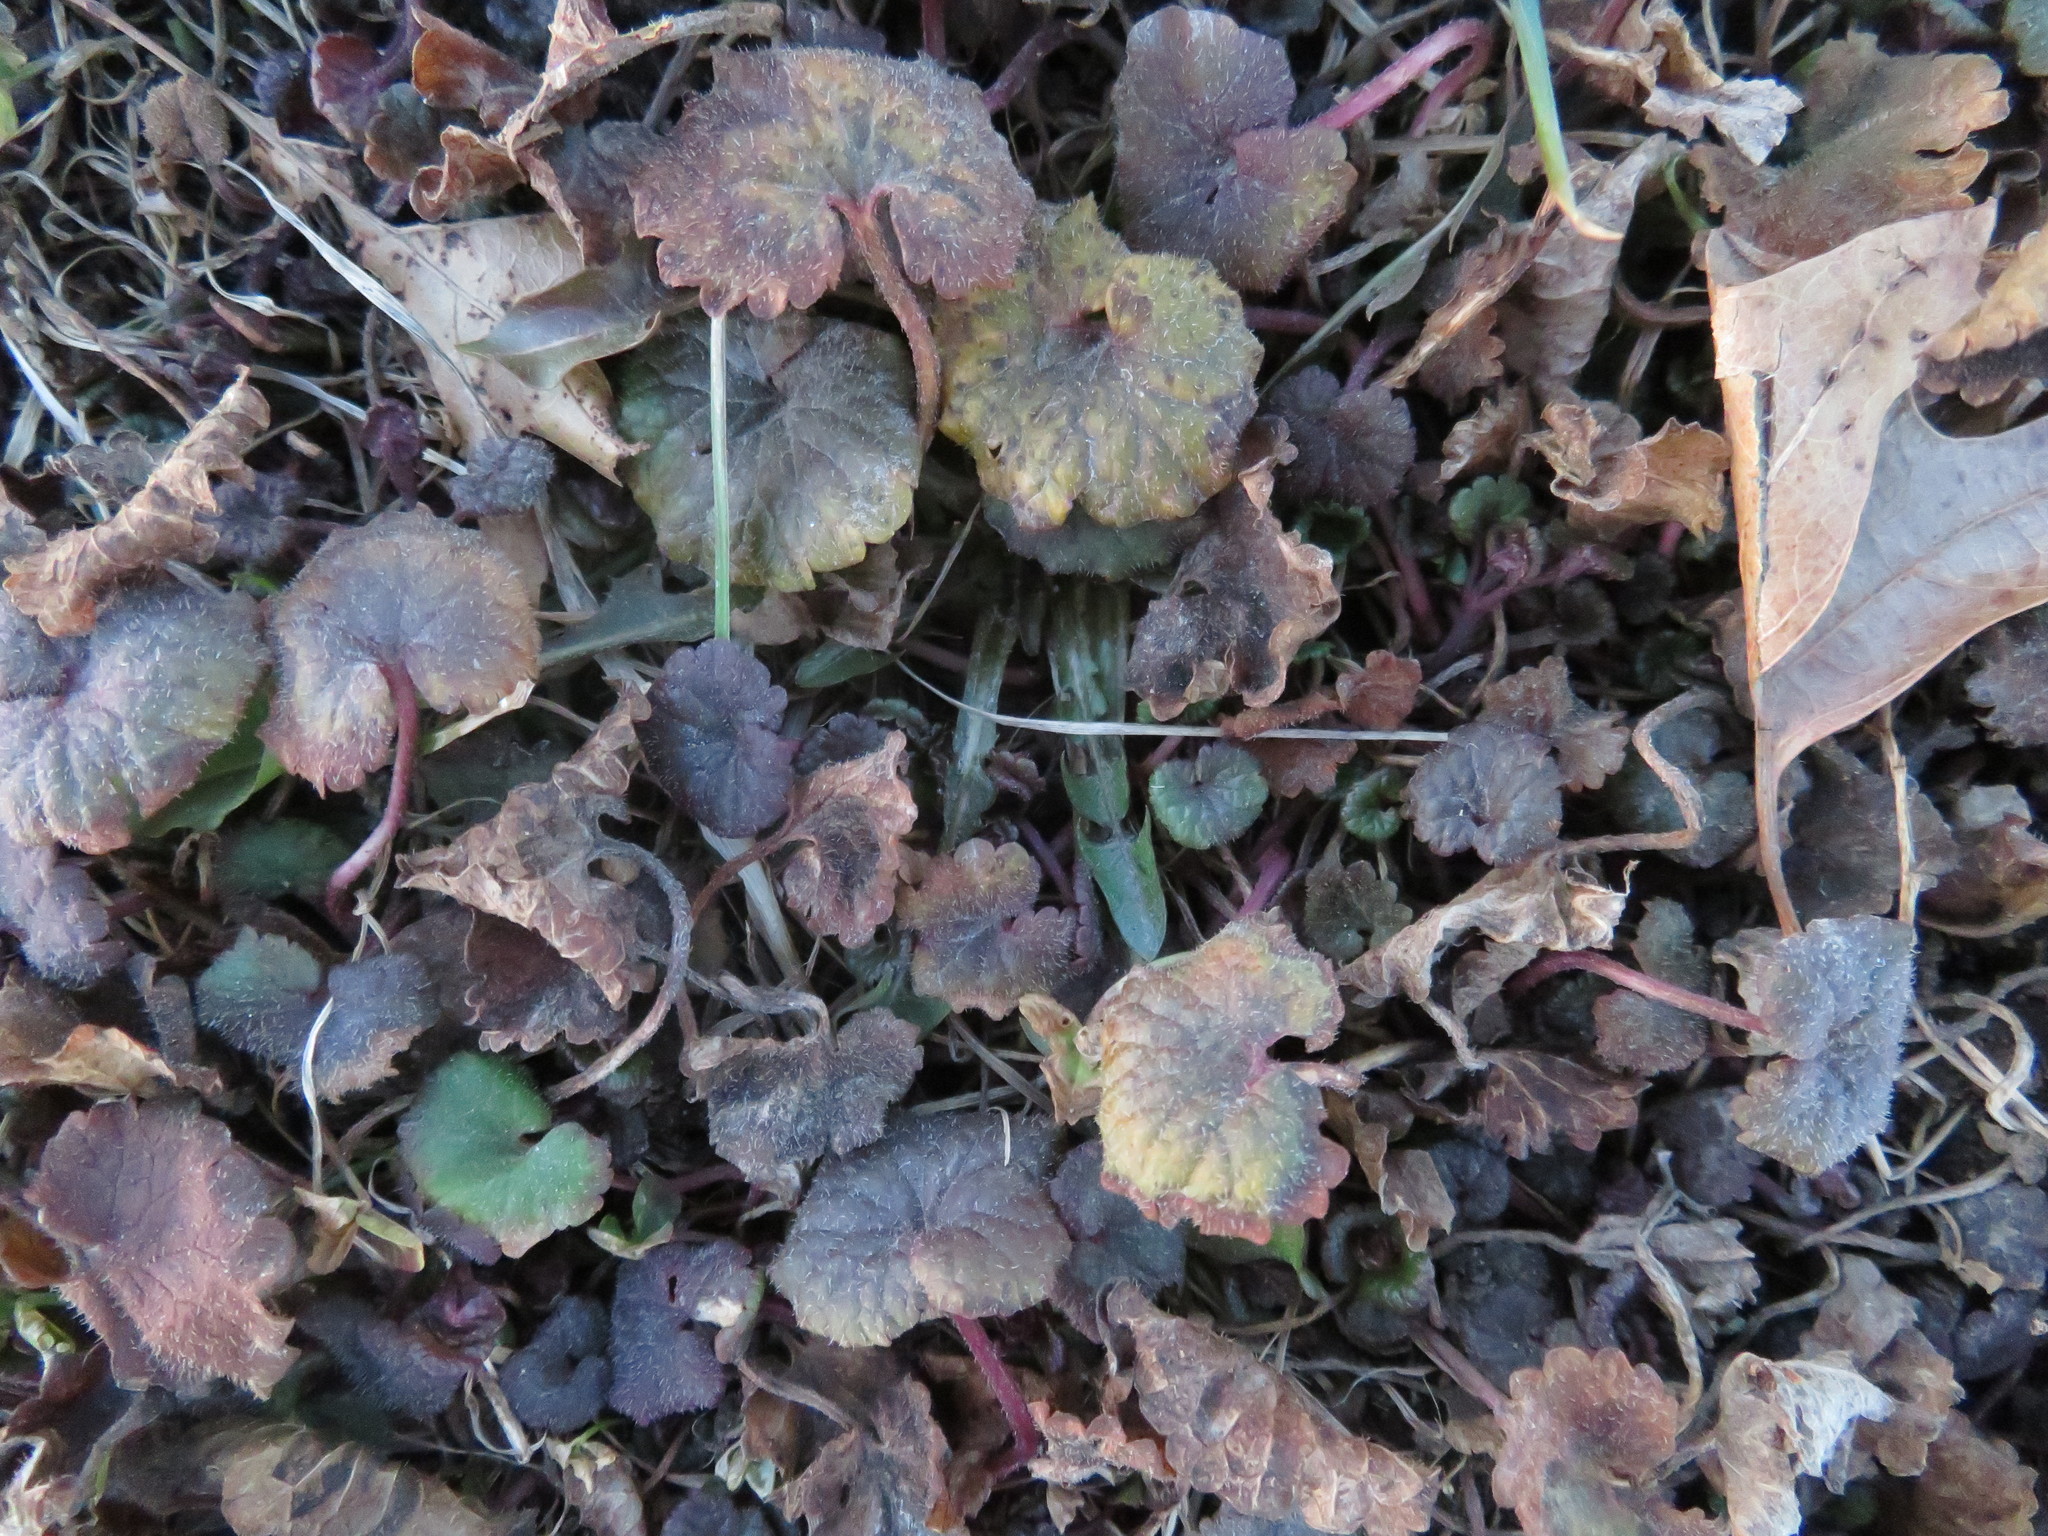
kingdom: Plantae
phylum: Tracheophyta
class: Magnoliopsida
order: Lamiales
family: Lamiaceae
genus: Glechoma
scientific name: Glechoma hederacea
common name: Ground ivy
